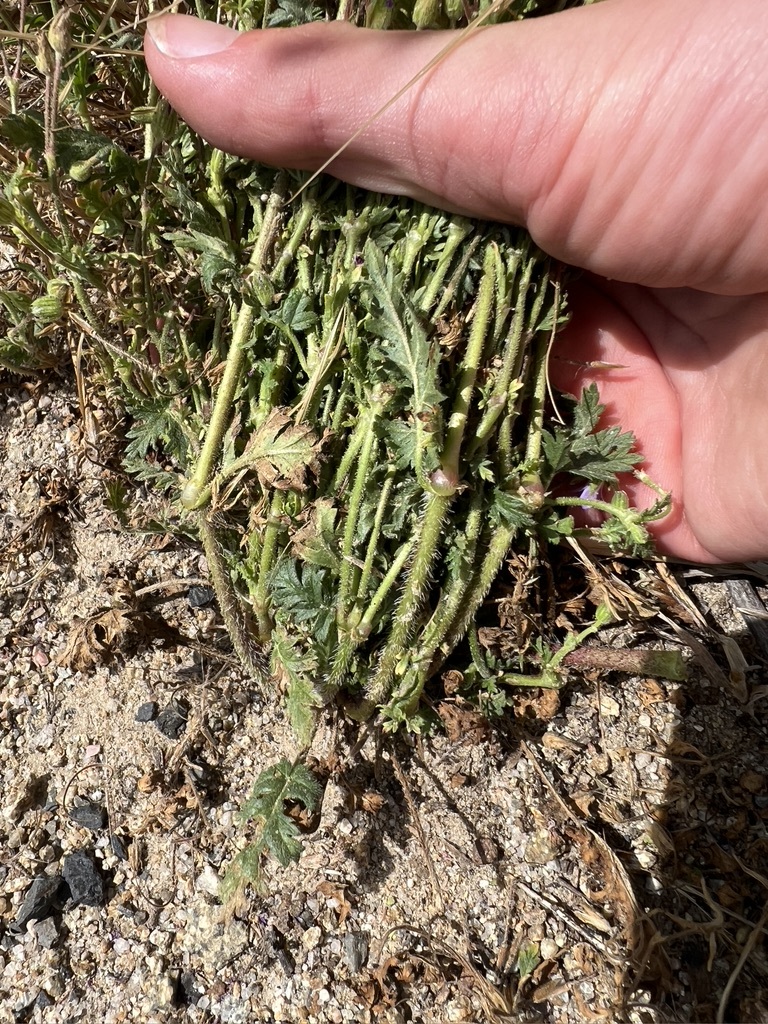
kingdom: Plantae
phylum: Tracheophyta
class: Magnoliopsida
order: Geraniales
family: Geraniaceae
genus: Erodium
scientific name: Erodium brachycarpum
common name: Hairy-pitted stork's-bill
